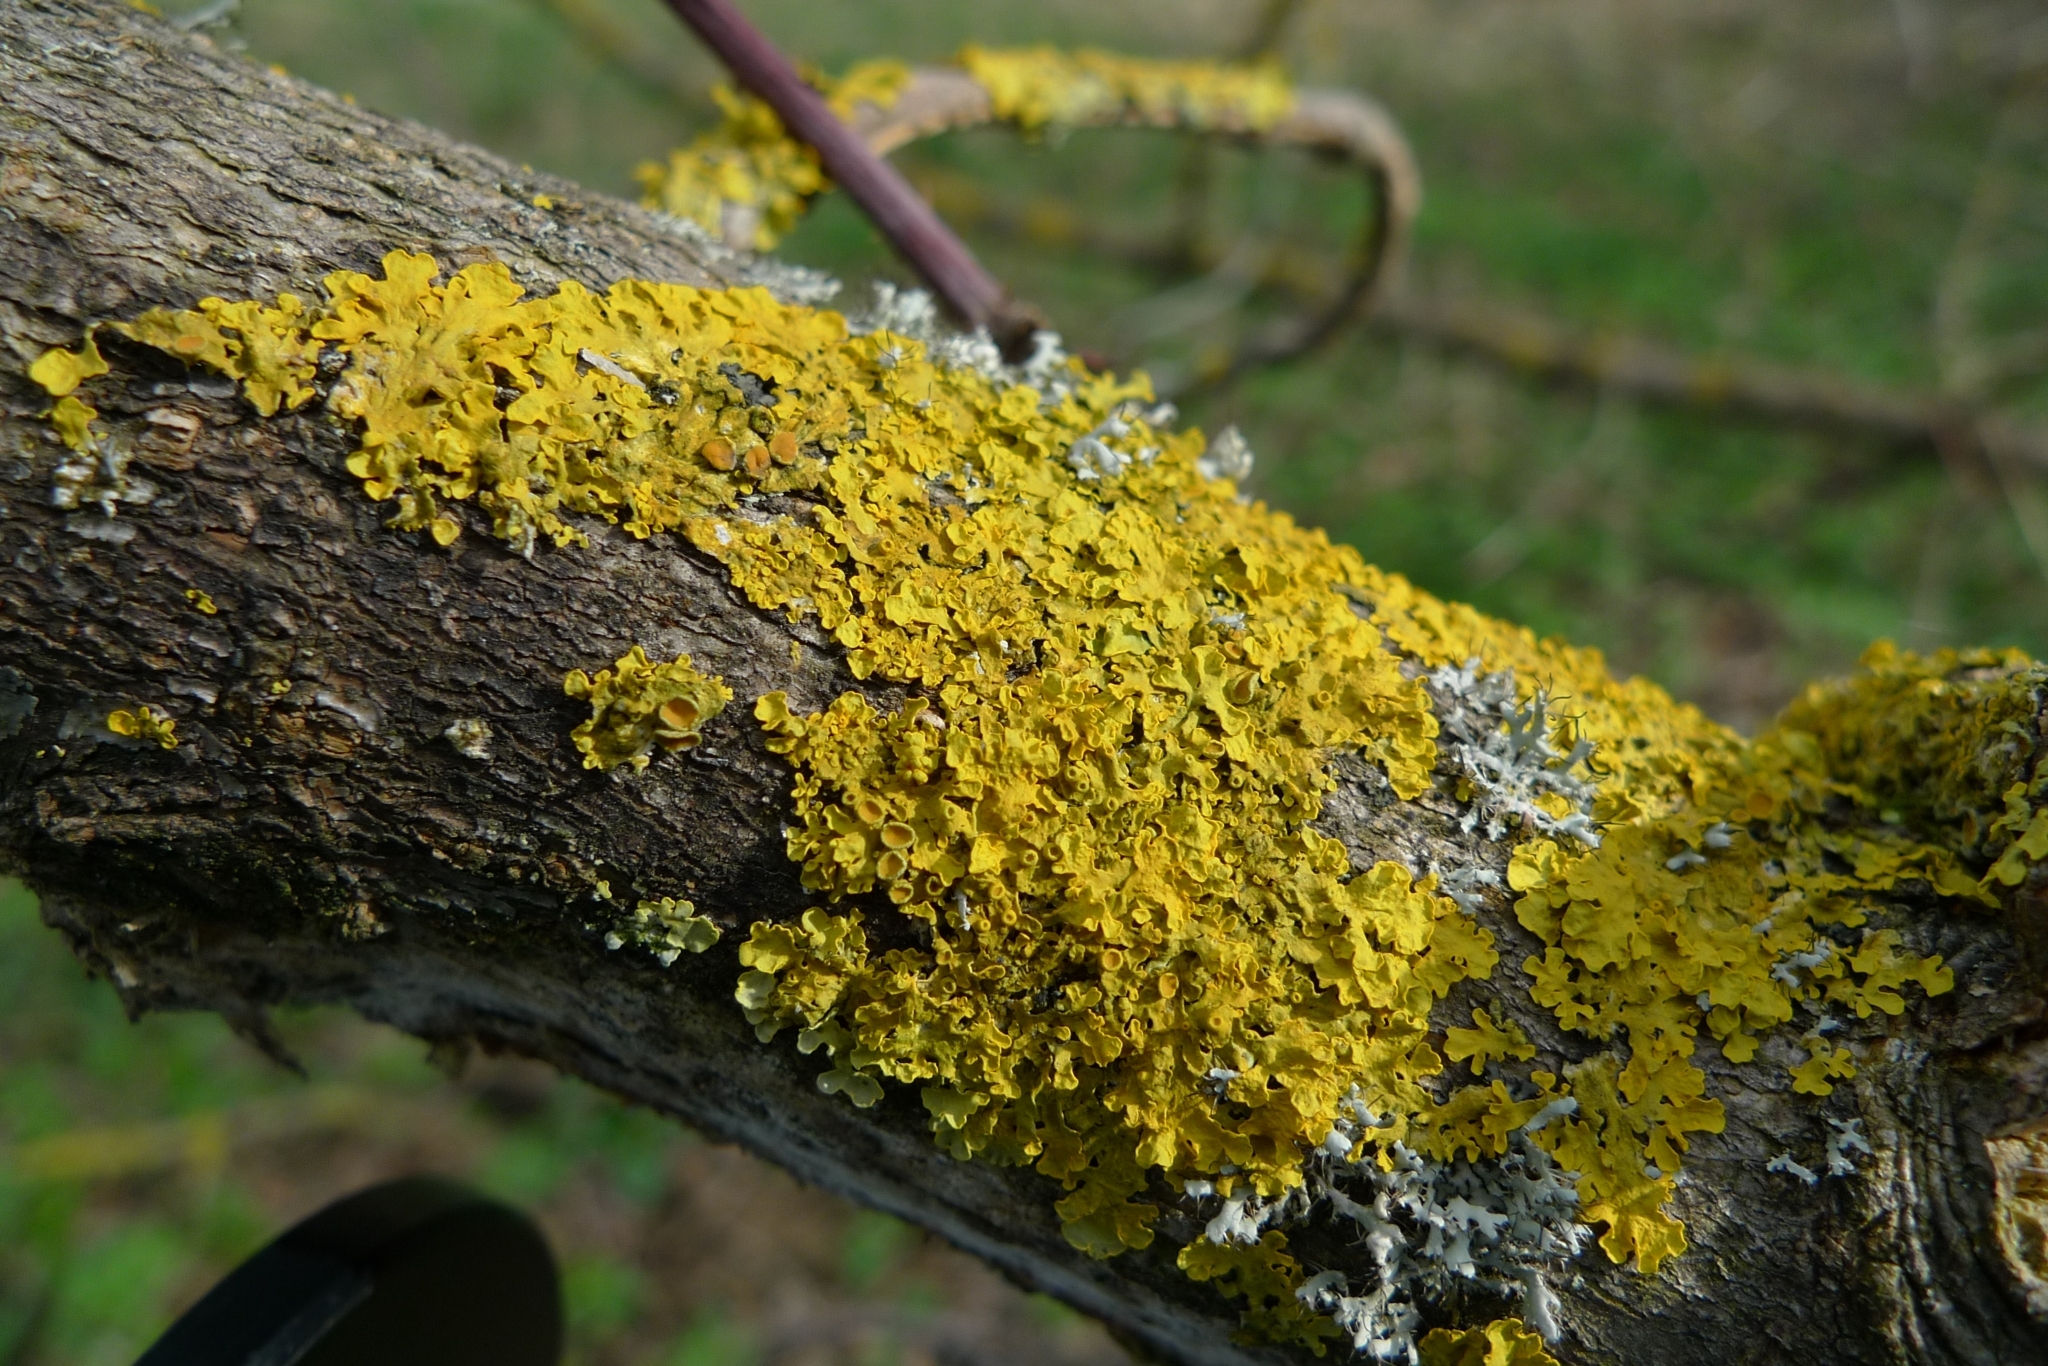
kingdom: Fungi
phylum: Ascomycota
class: Lecanoromycetes
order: Teloschistales
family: Teloschistaceae
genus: Xanthoria
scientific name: Xanthoria parietina
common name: Common orange lichen
